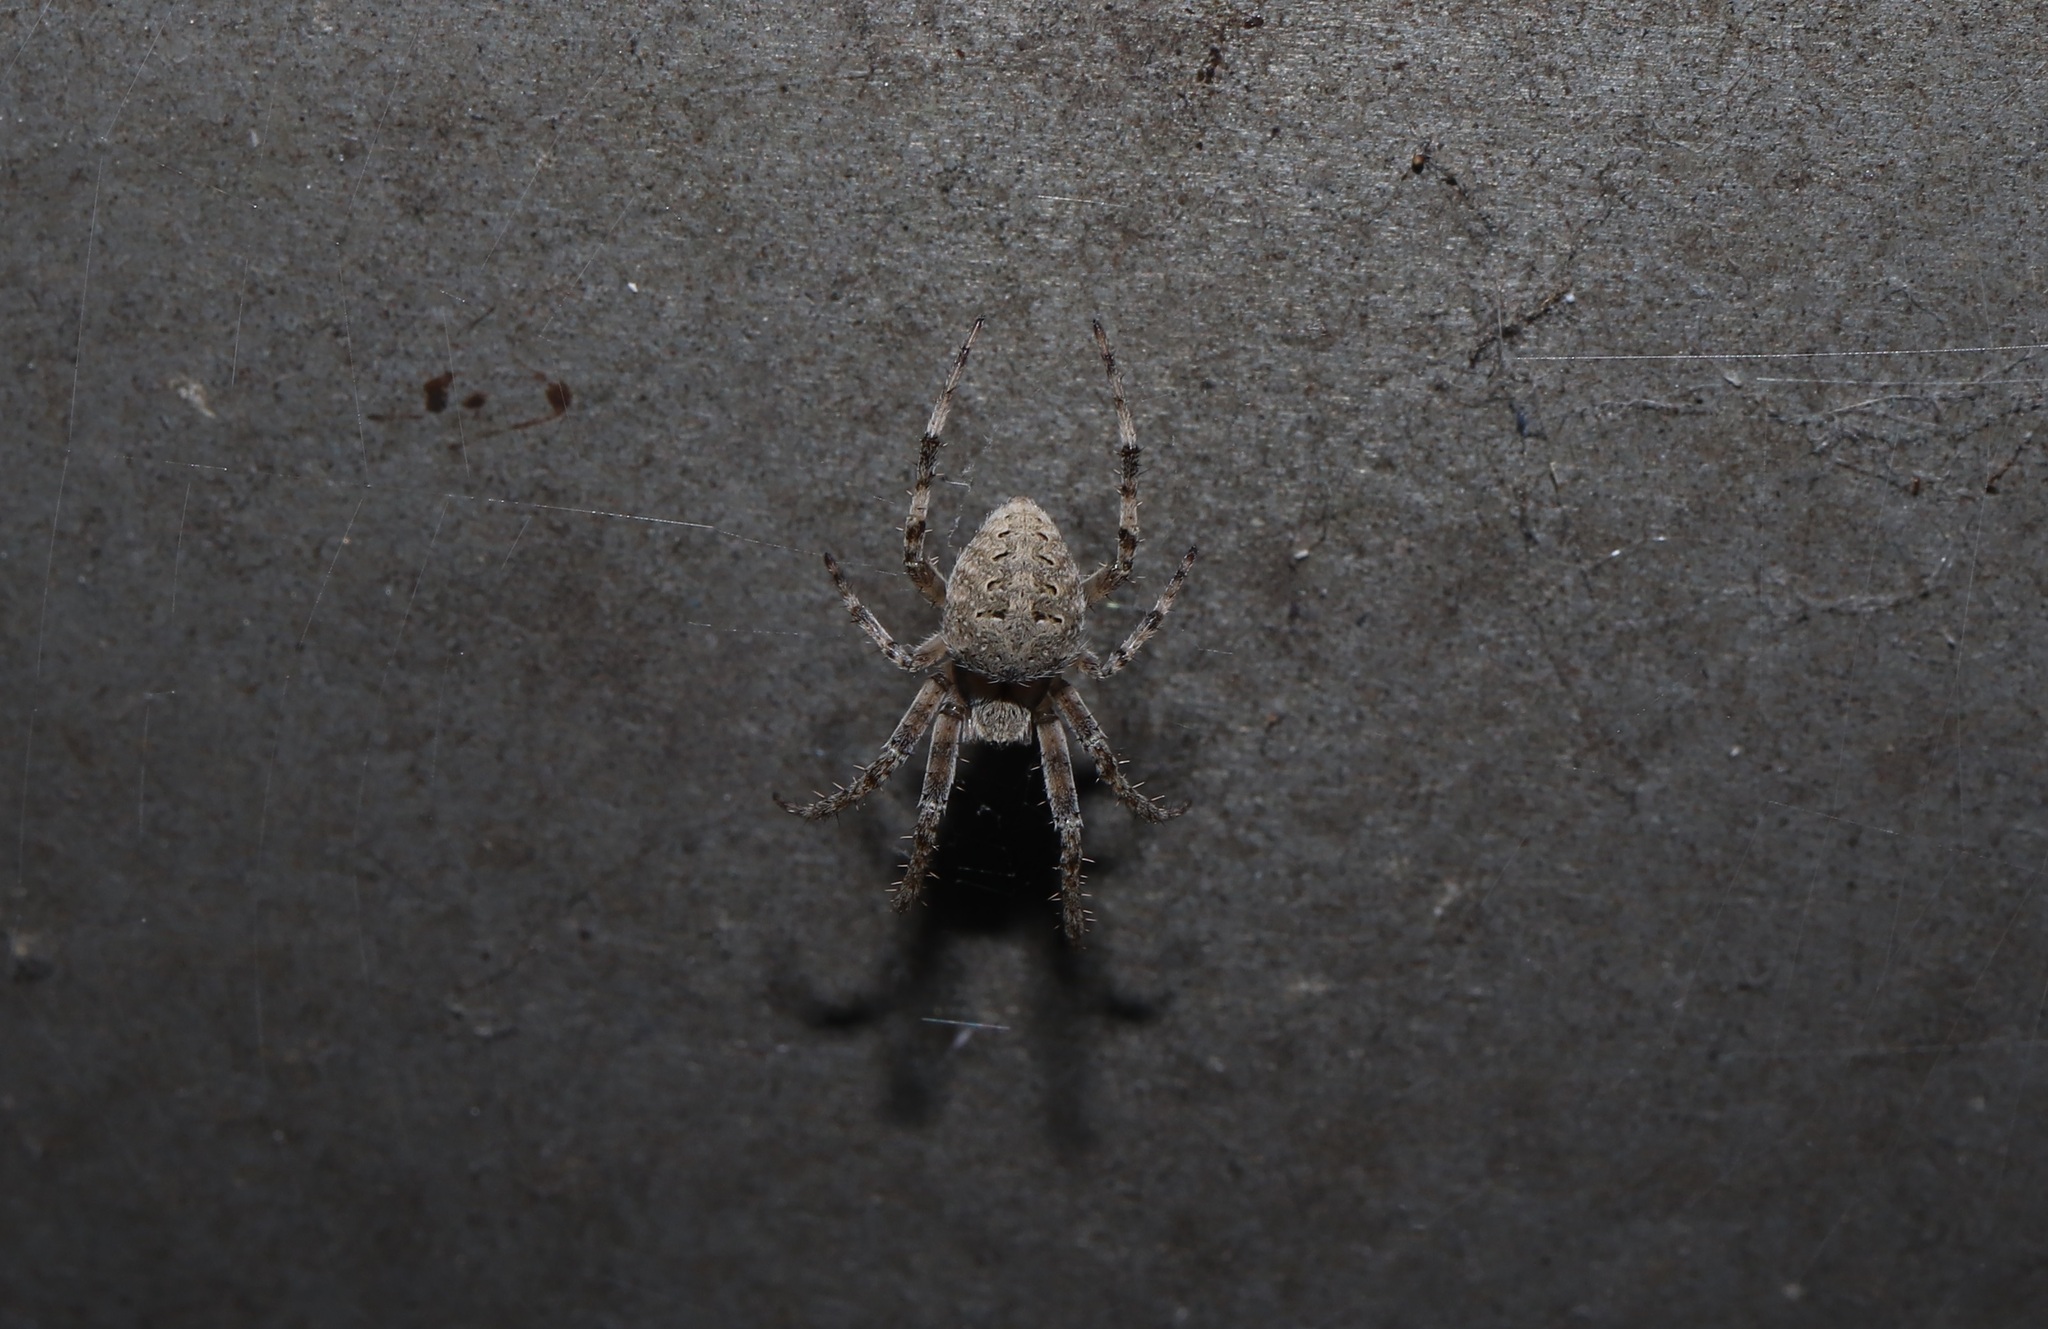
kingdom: Animalia
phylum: Arthropoda
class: Arachnida
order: Araneae
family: Araneidae
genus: Neoscona
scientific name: Neoscona nautica
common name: Orb weavers
